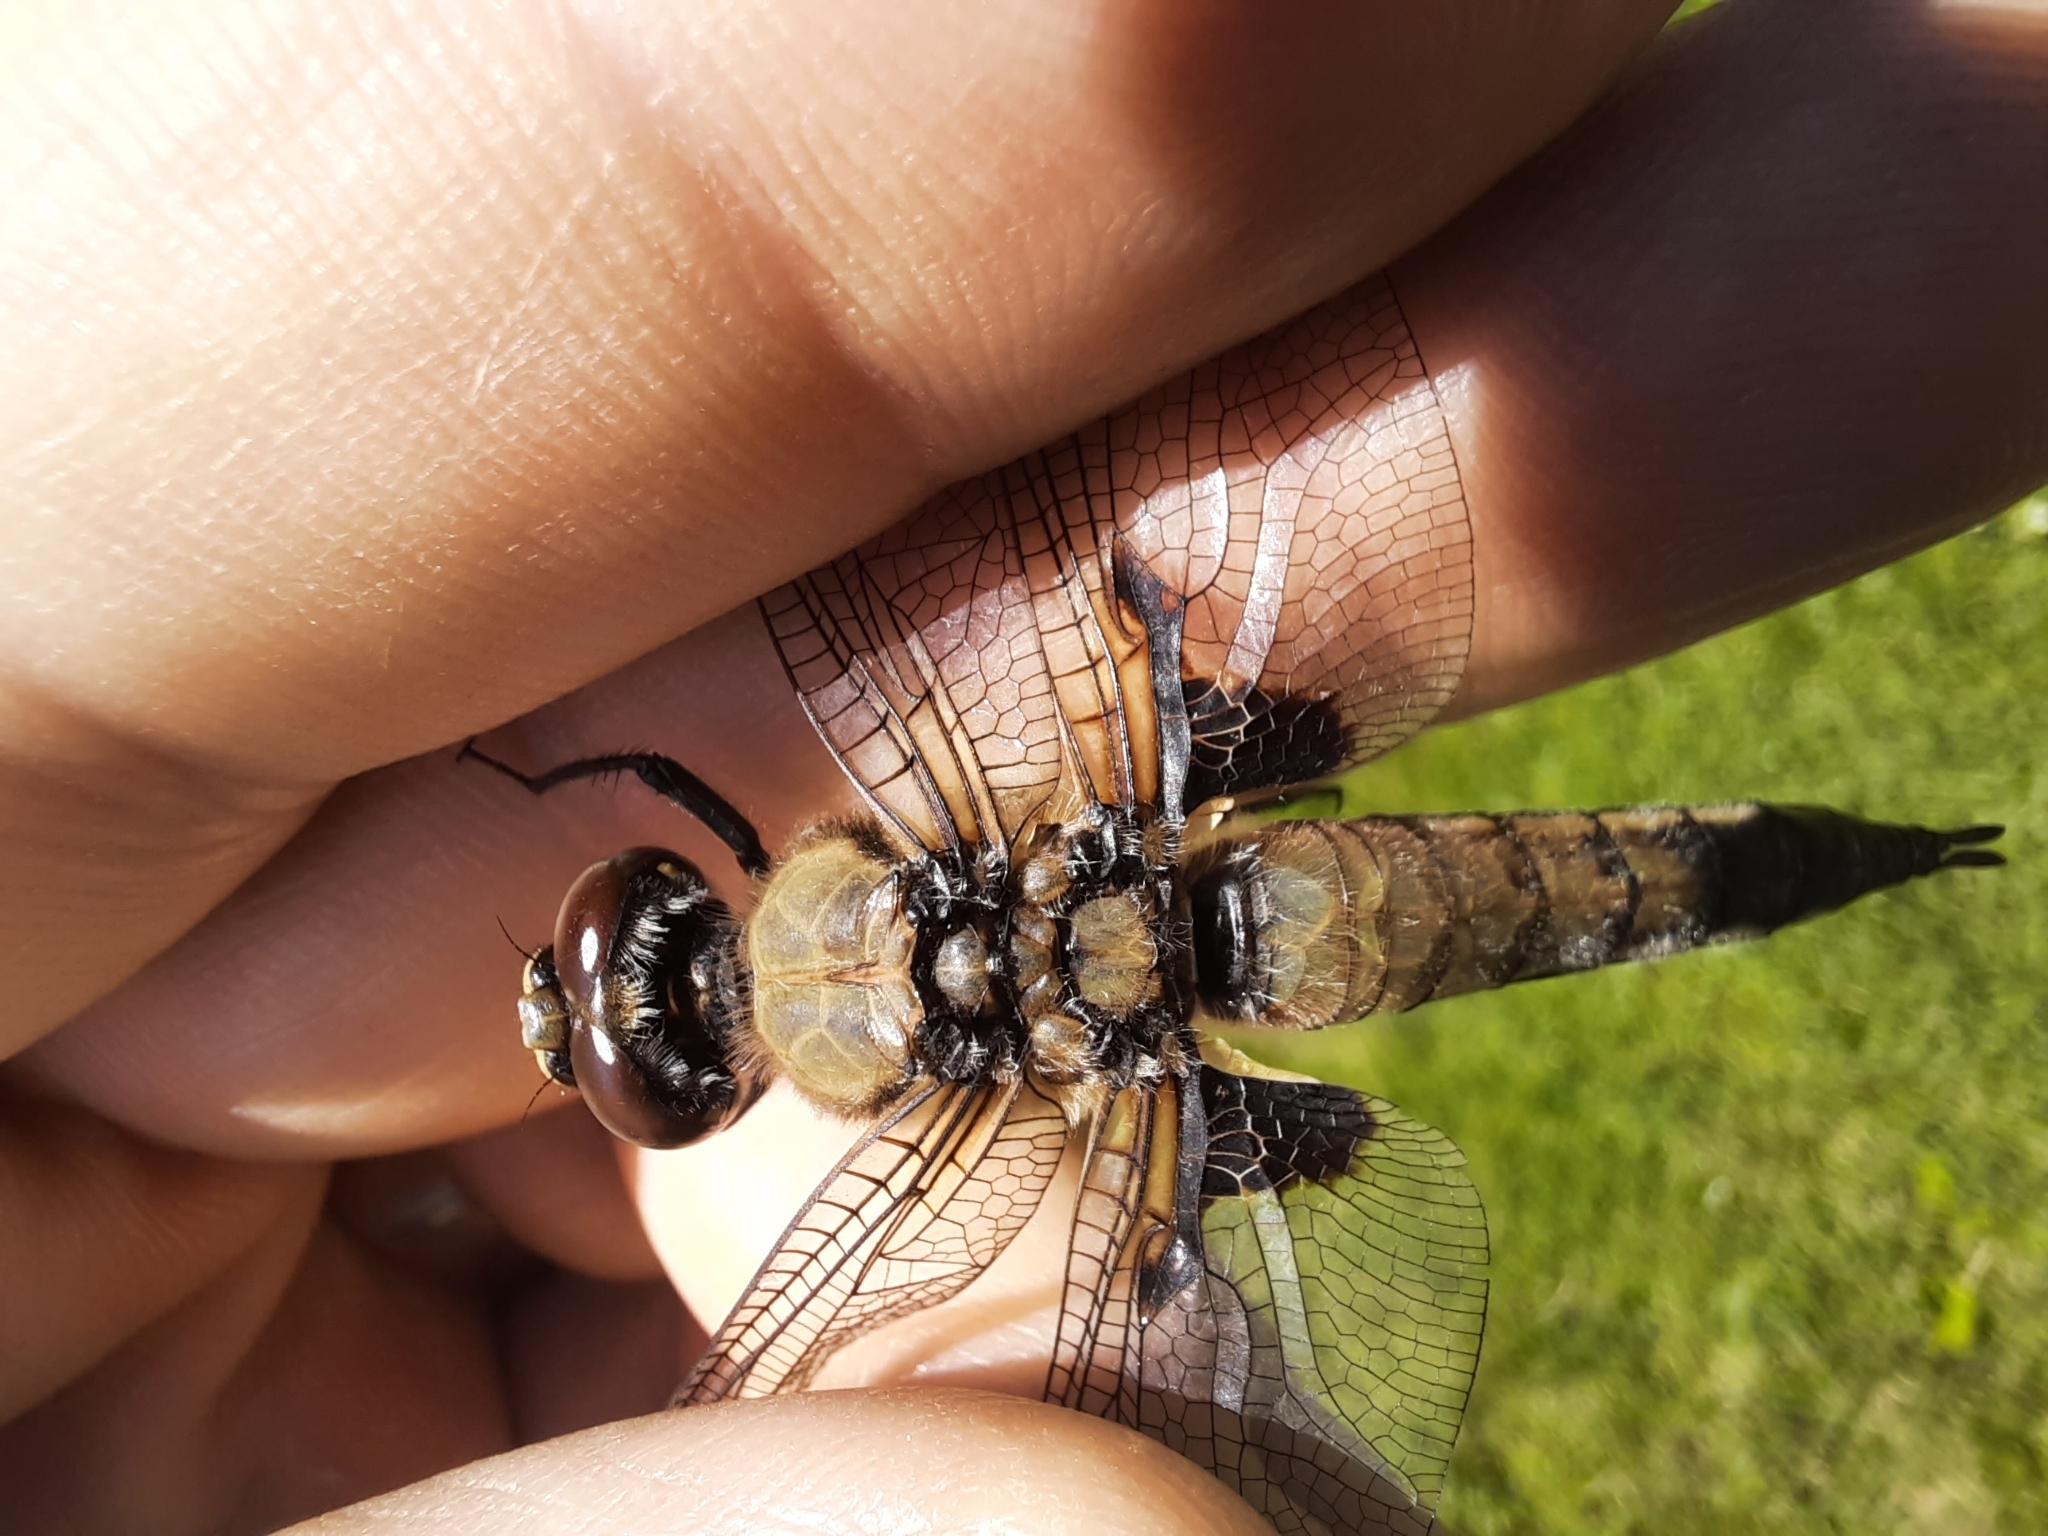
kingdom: Animalia
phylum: Arthropoda
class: Insecta
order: Odonata
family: Libellulidae
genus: Libellula
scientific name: Libellula quadrimaculata
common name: Four-spotted chaser
